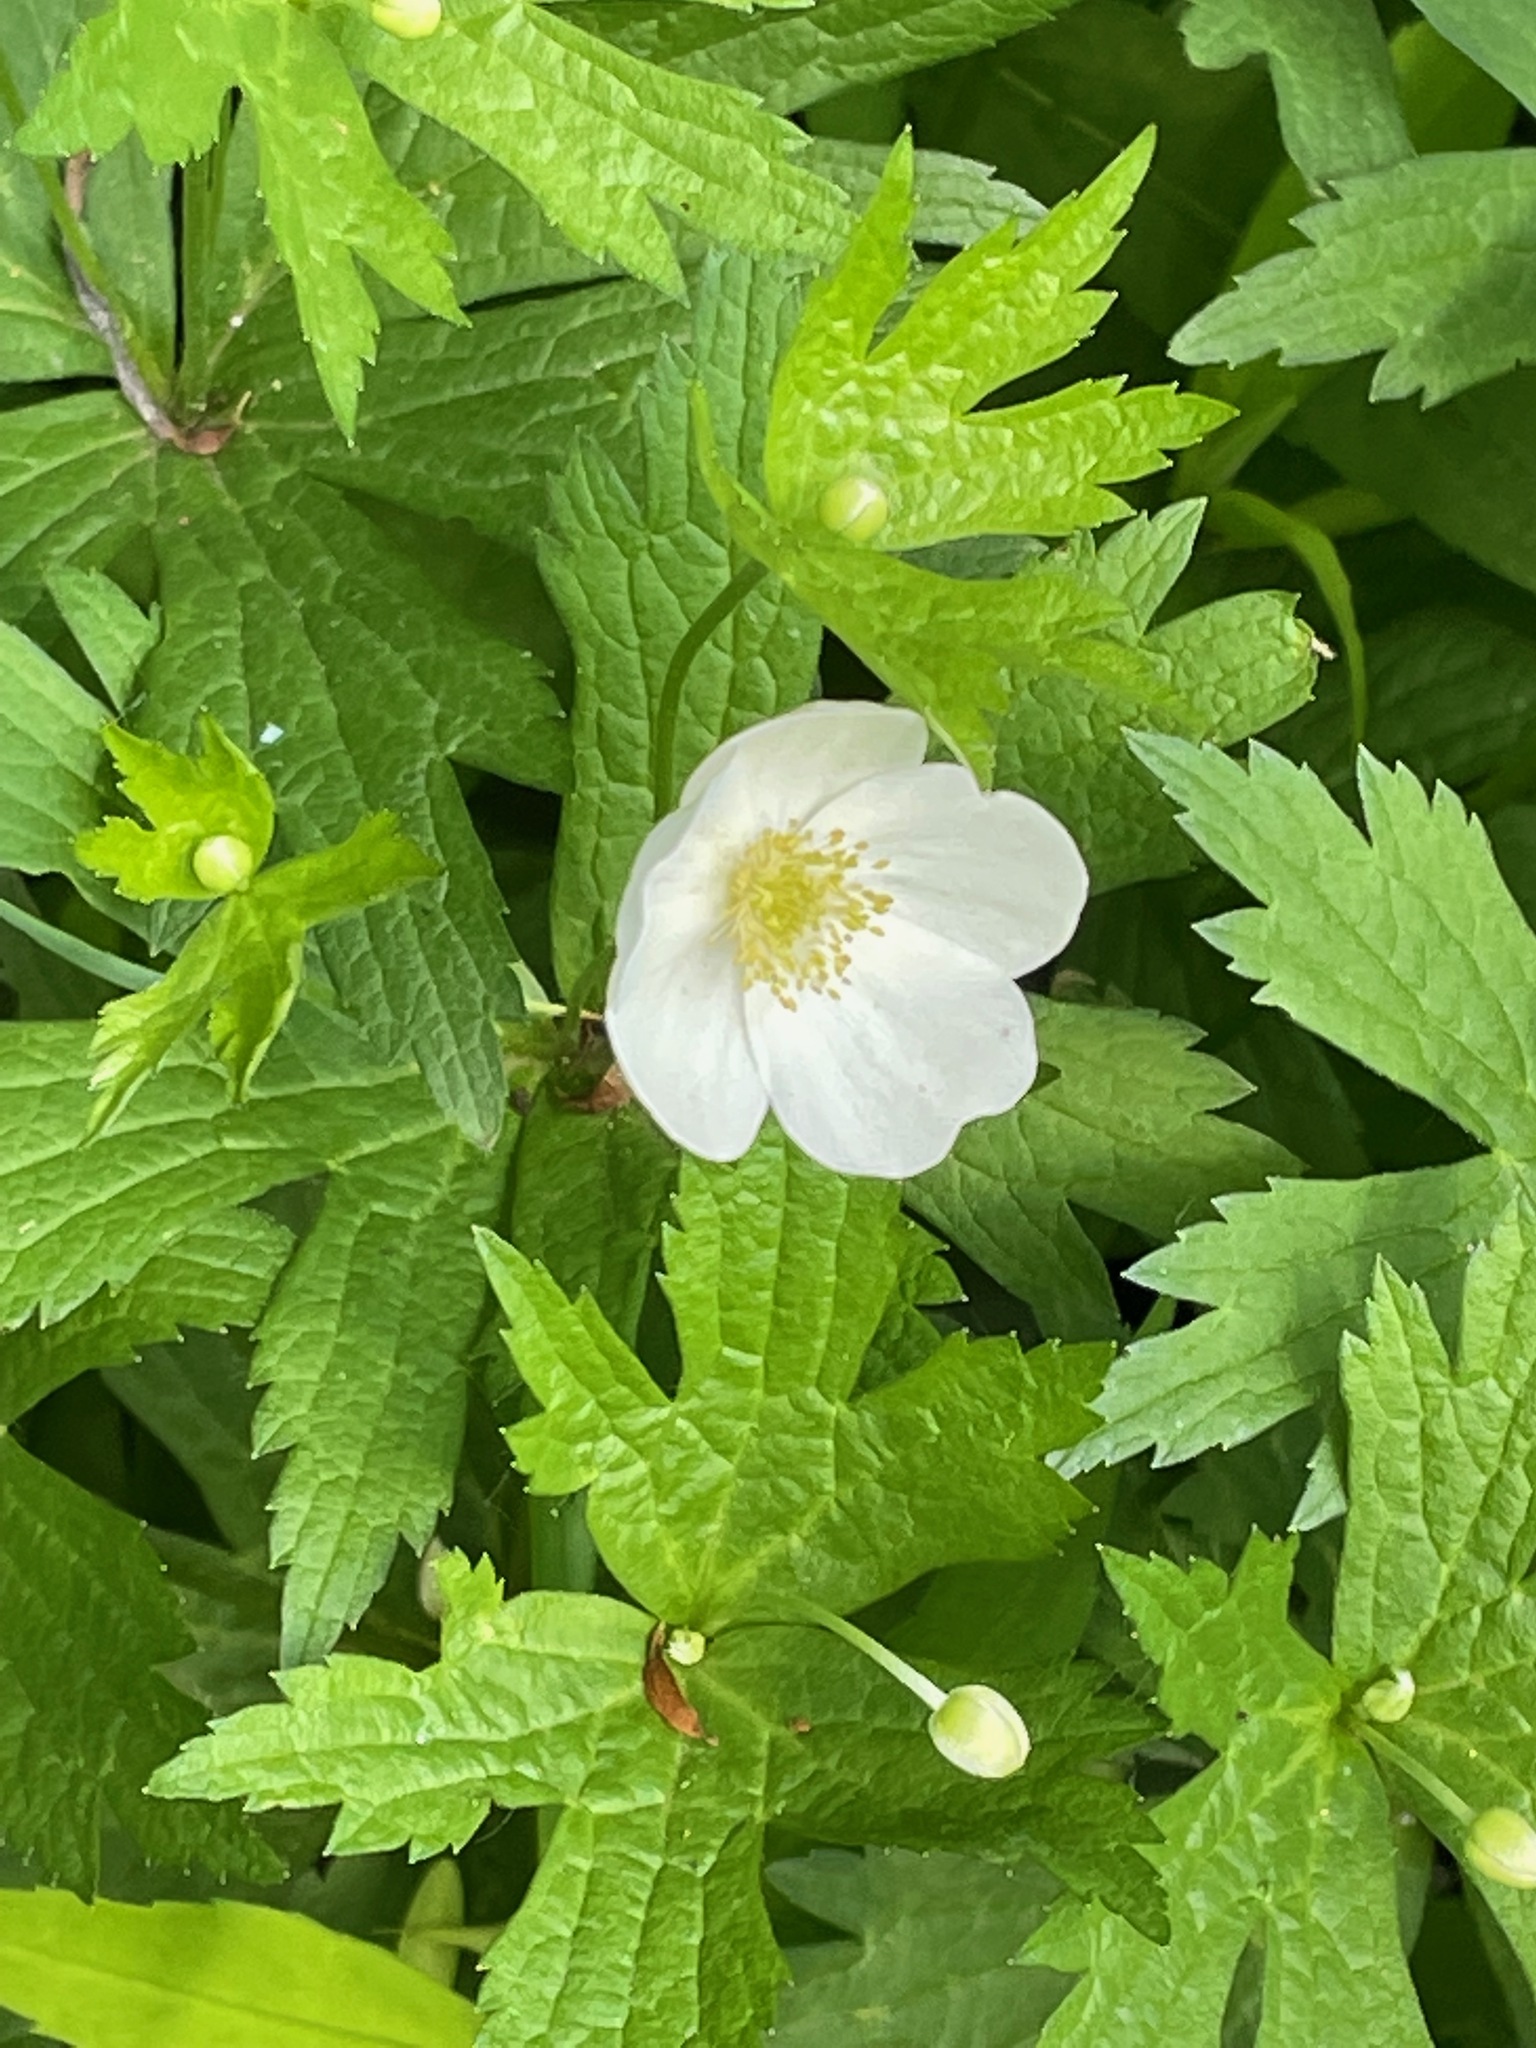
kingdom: Plantae
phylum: Tracheophyta
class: Magnoliopsida
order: Ranunculales
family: Ranunculaceae
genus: Anemonastrum
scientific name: Anemonastrum canadense
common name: Canada anemone
